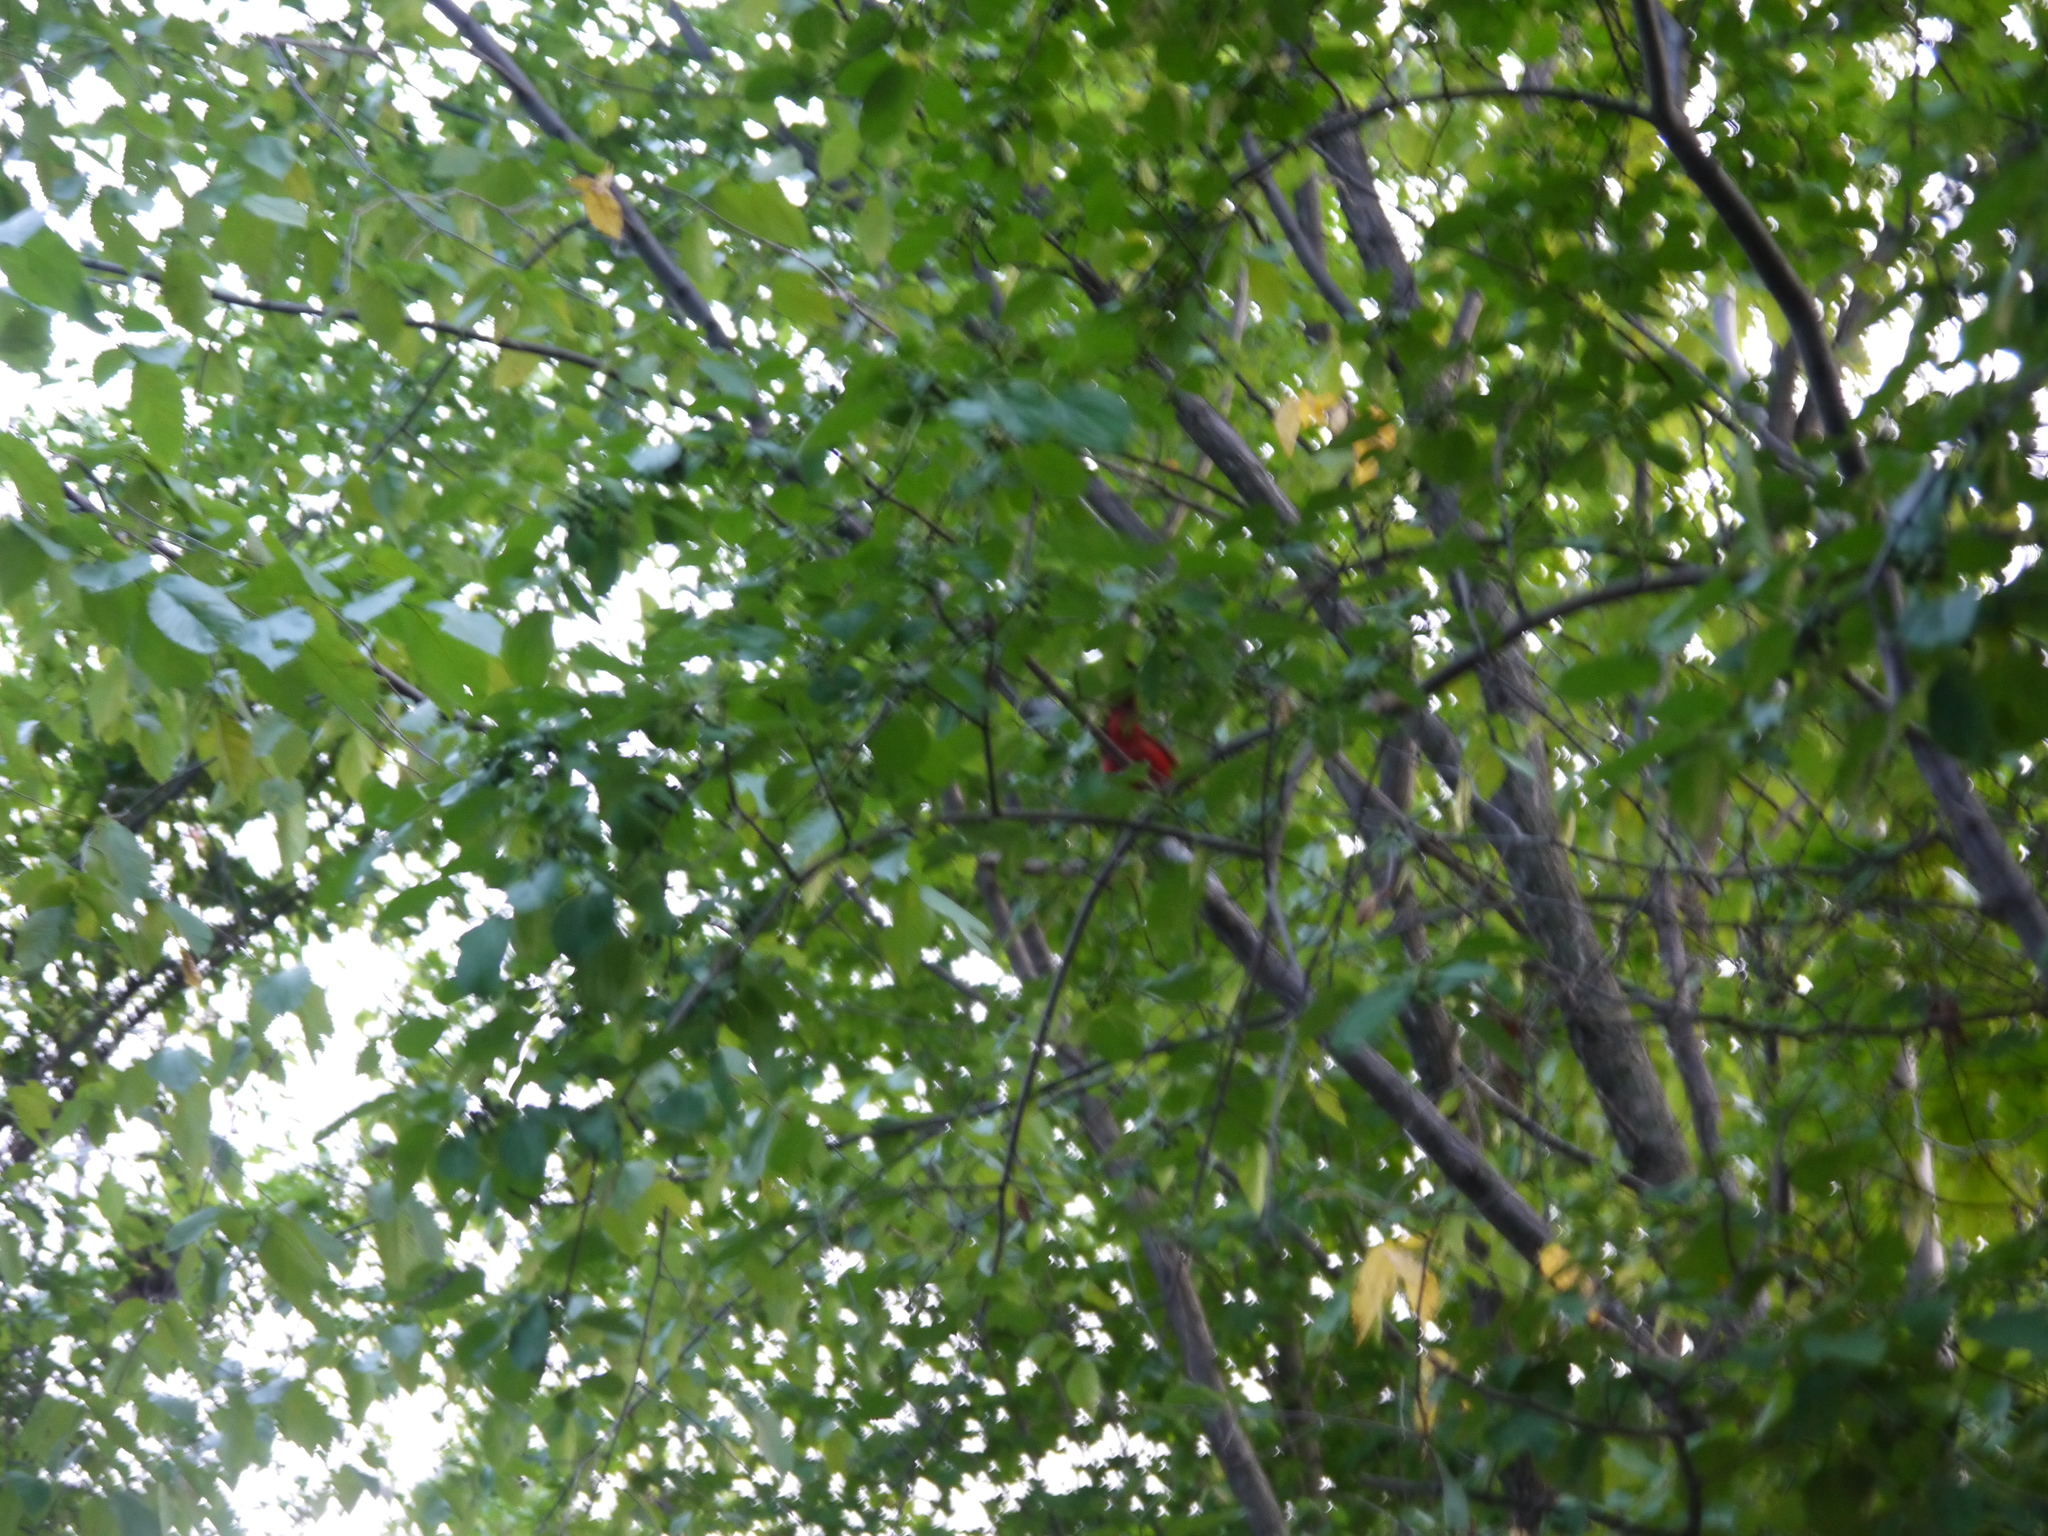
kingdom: Animalia
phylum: Chordata
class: Aves
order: Passeriformes
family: Cardinalidae
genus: Cardinalis
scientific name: Cardinalis cardinalis
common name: Northern cardinal
